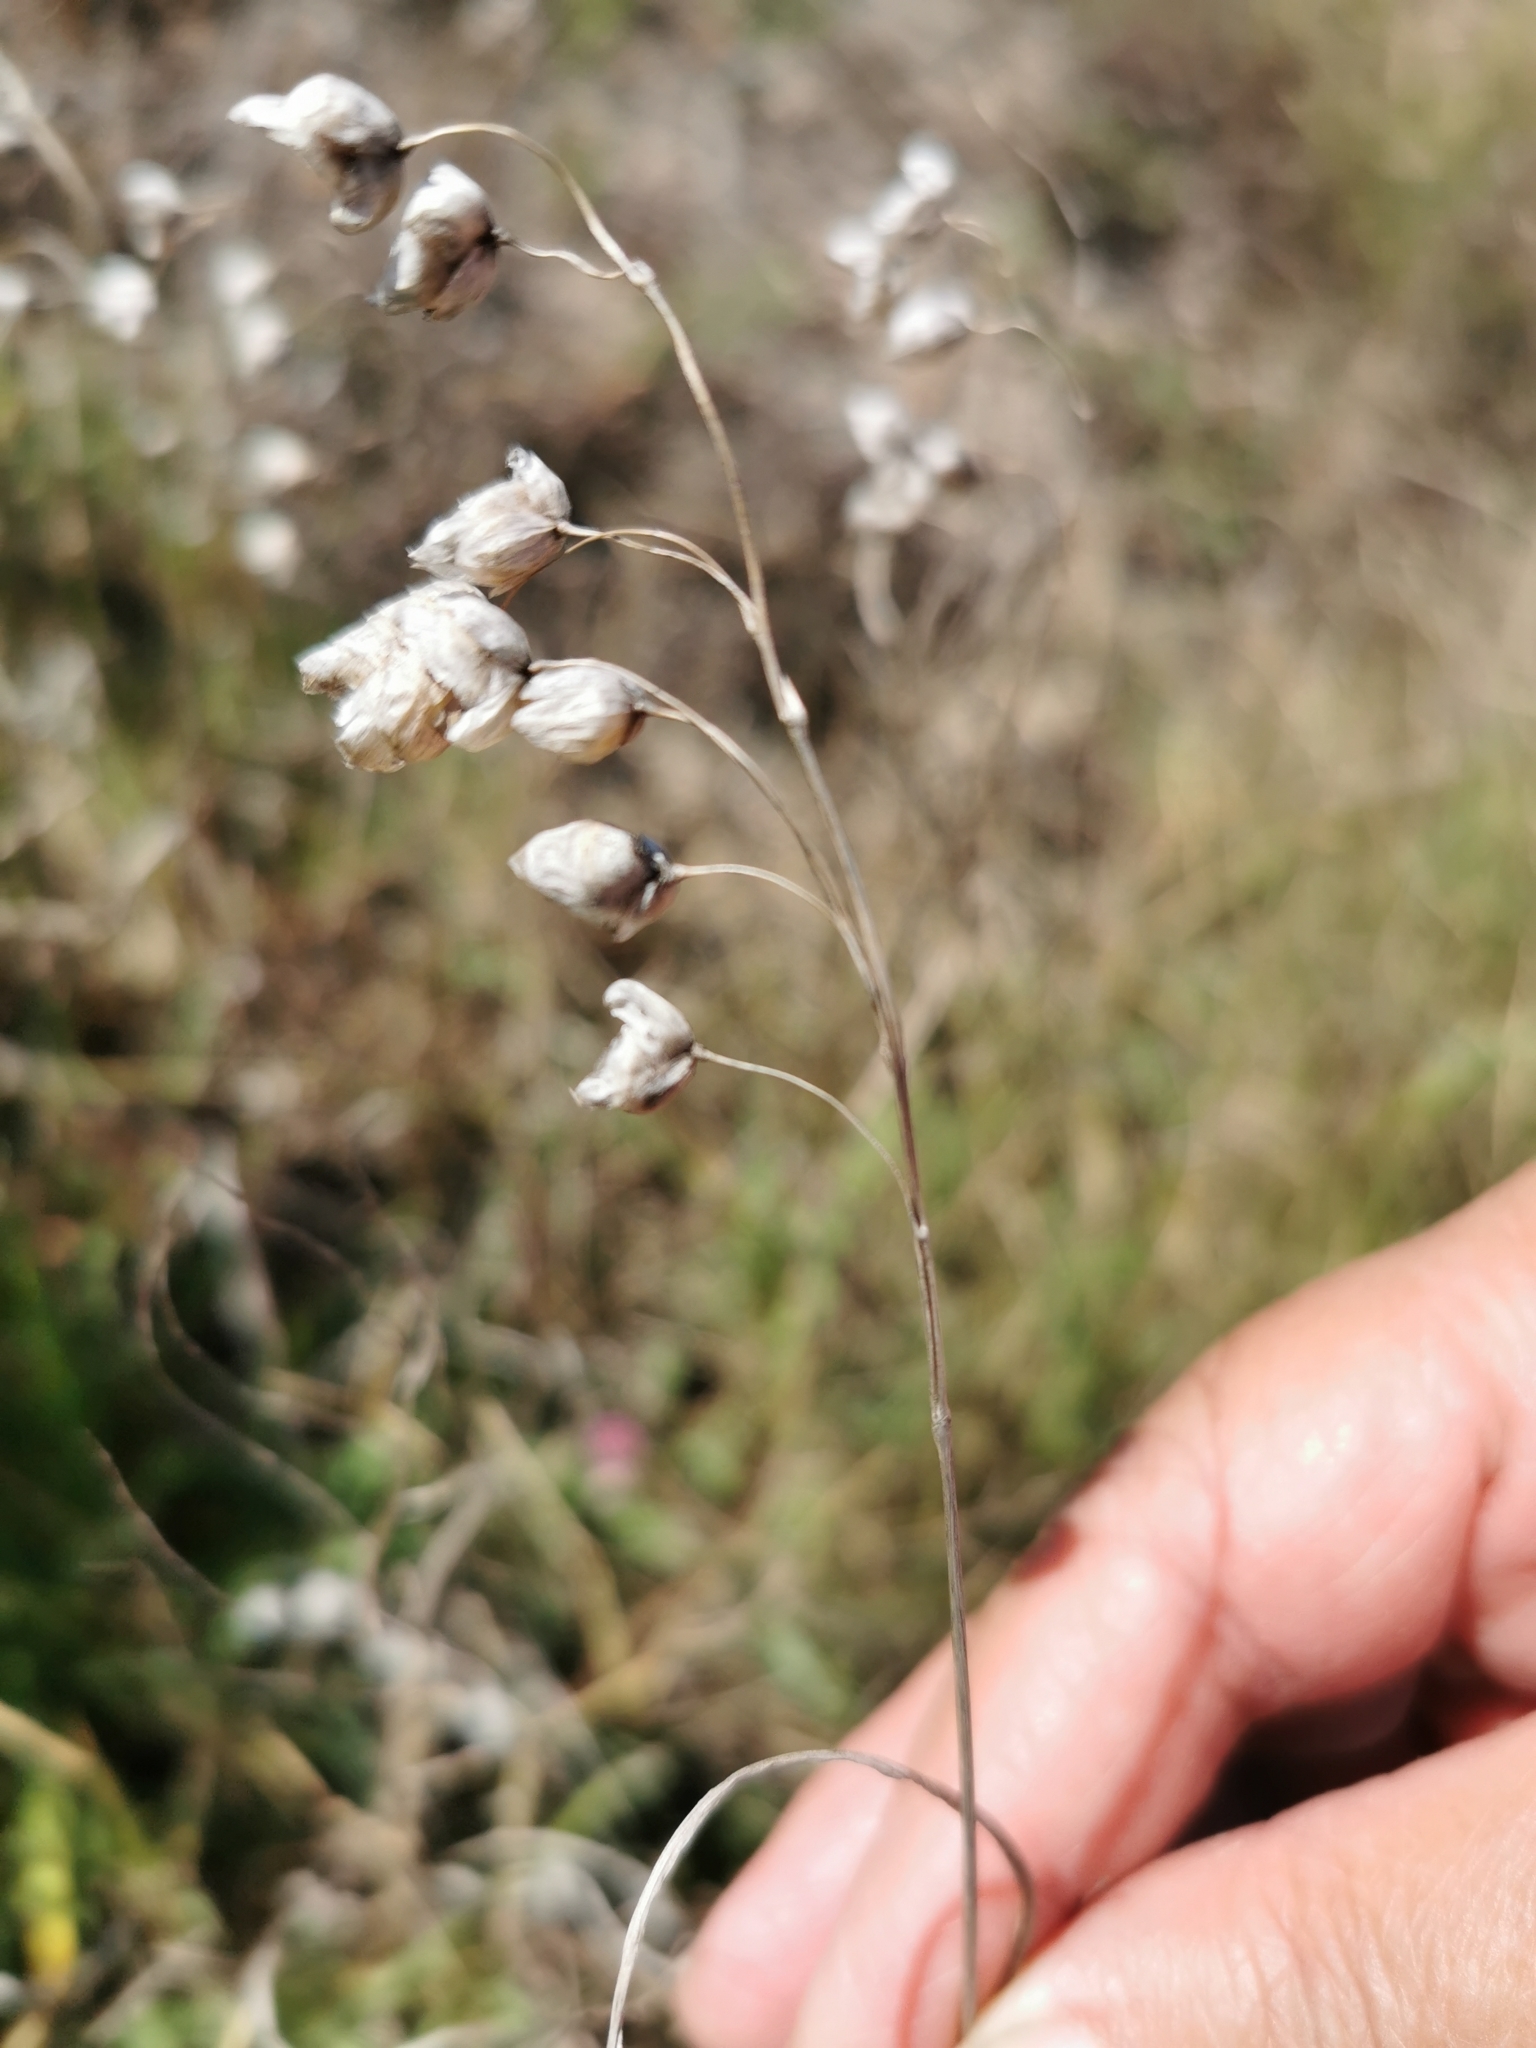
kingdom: Plantae
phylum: Tracheophyta
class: Liliopsida
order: Poales
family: Poaceae
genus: Briza
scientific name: Briza maxima
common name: Big quakinggrass
